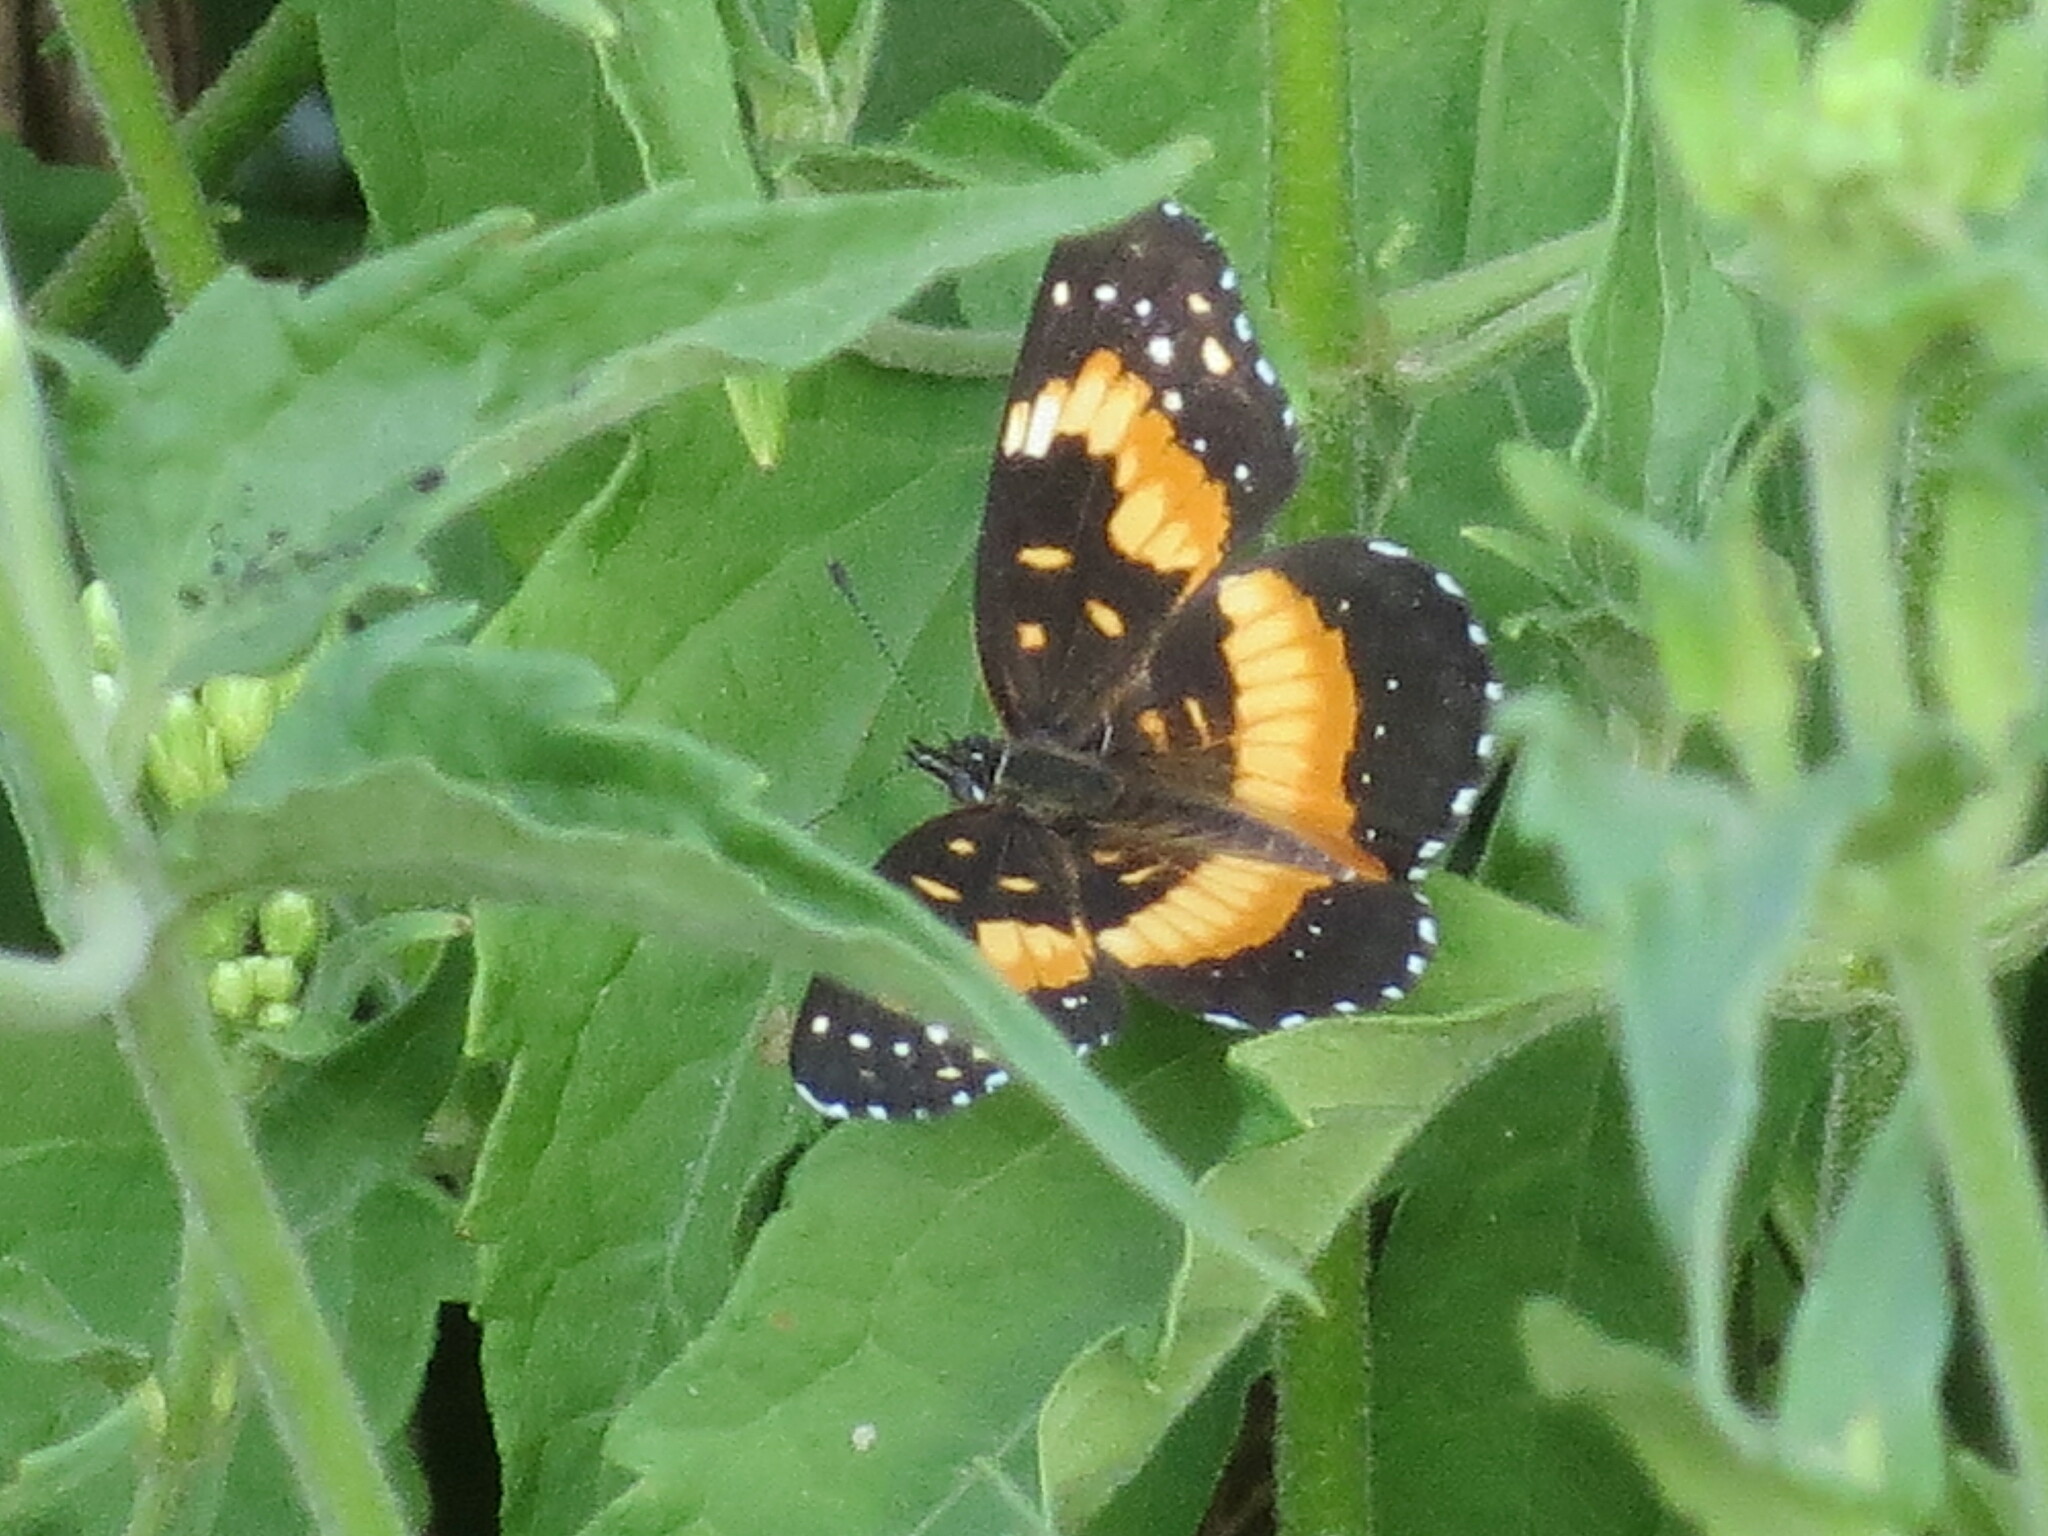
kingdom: Animalia
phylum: Arthropoda
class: Insecta
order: Lepidoptera
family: Nymphalidae
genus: Chlosyne
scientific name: Chlosyne lacinia
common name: Bordered patch
